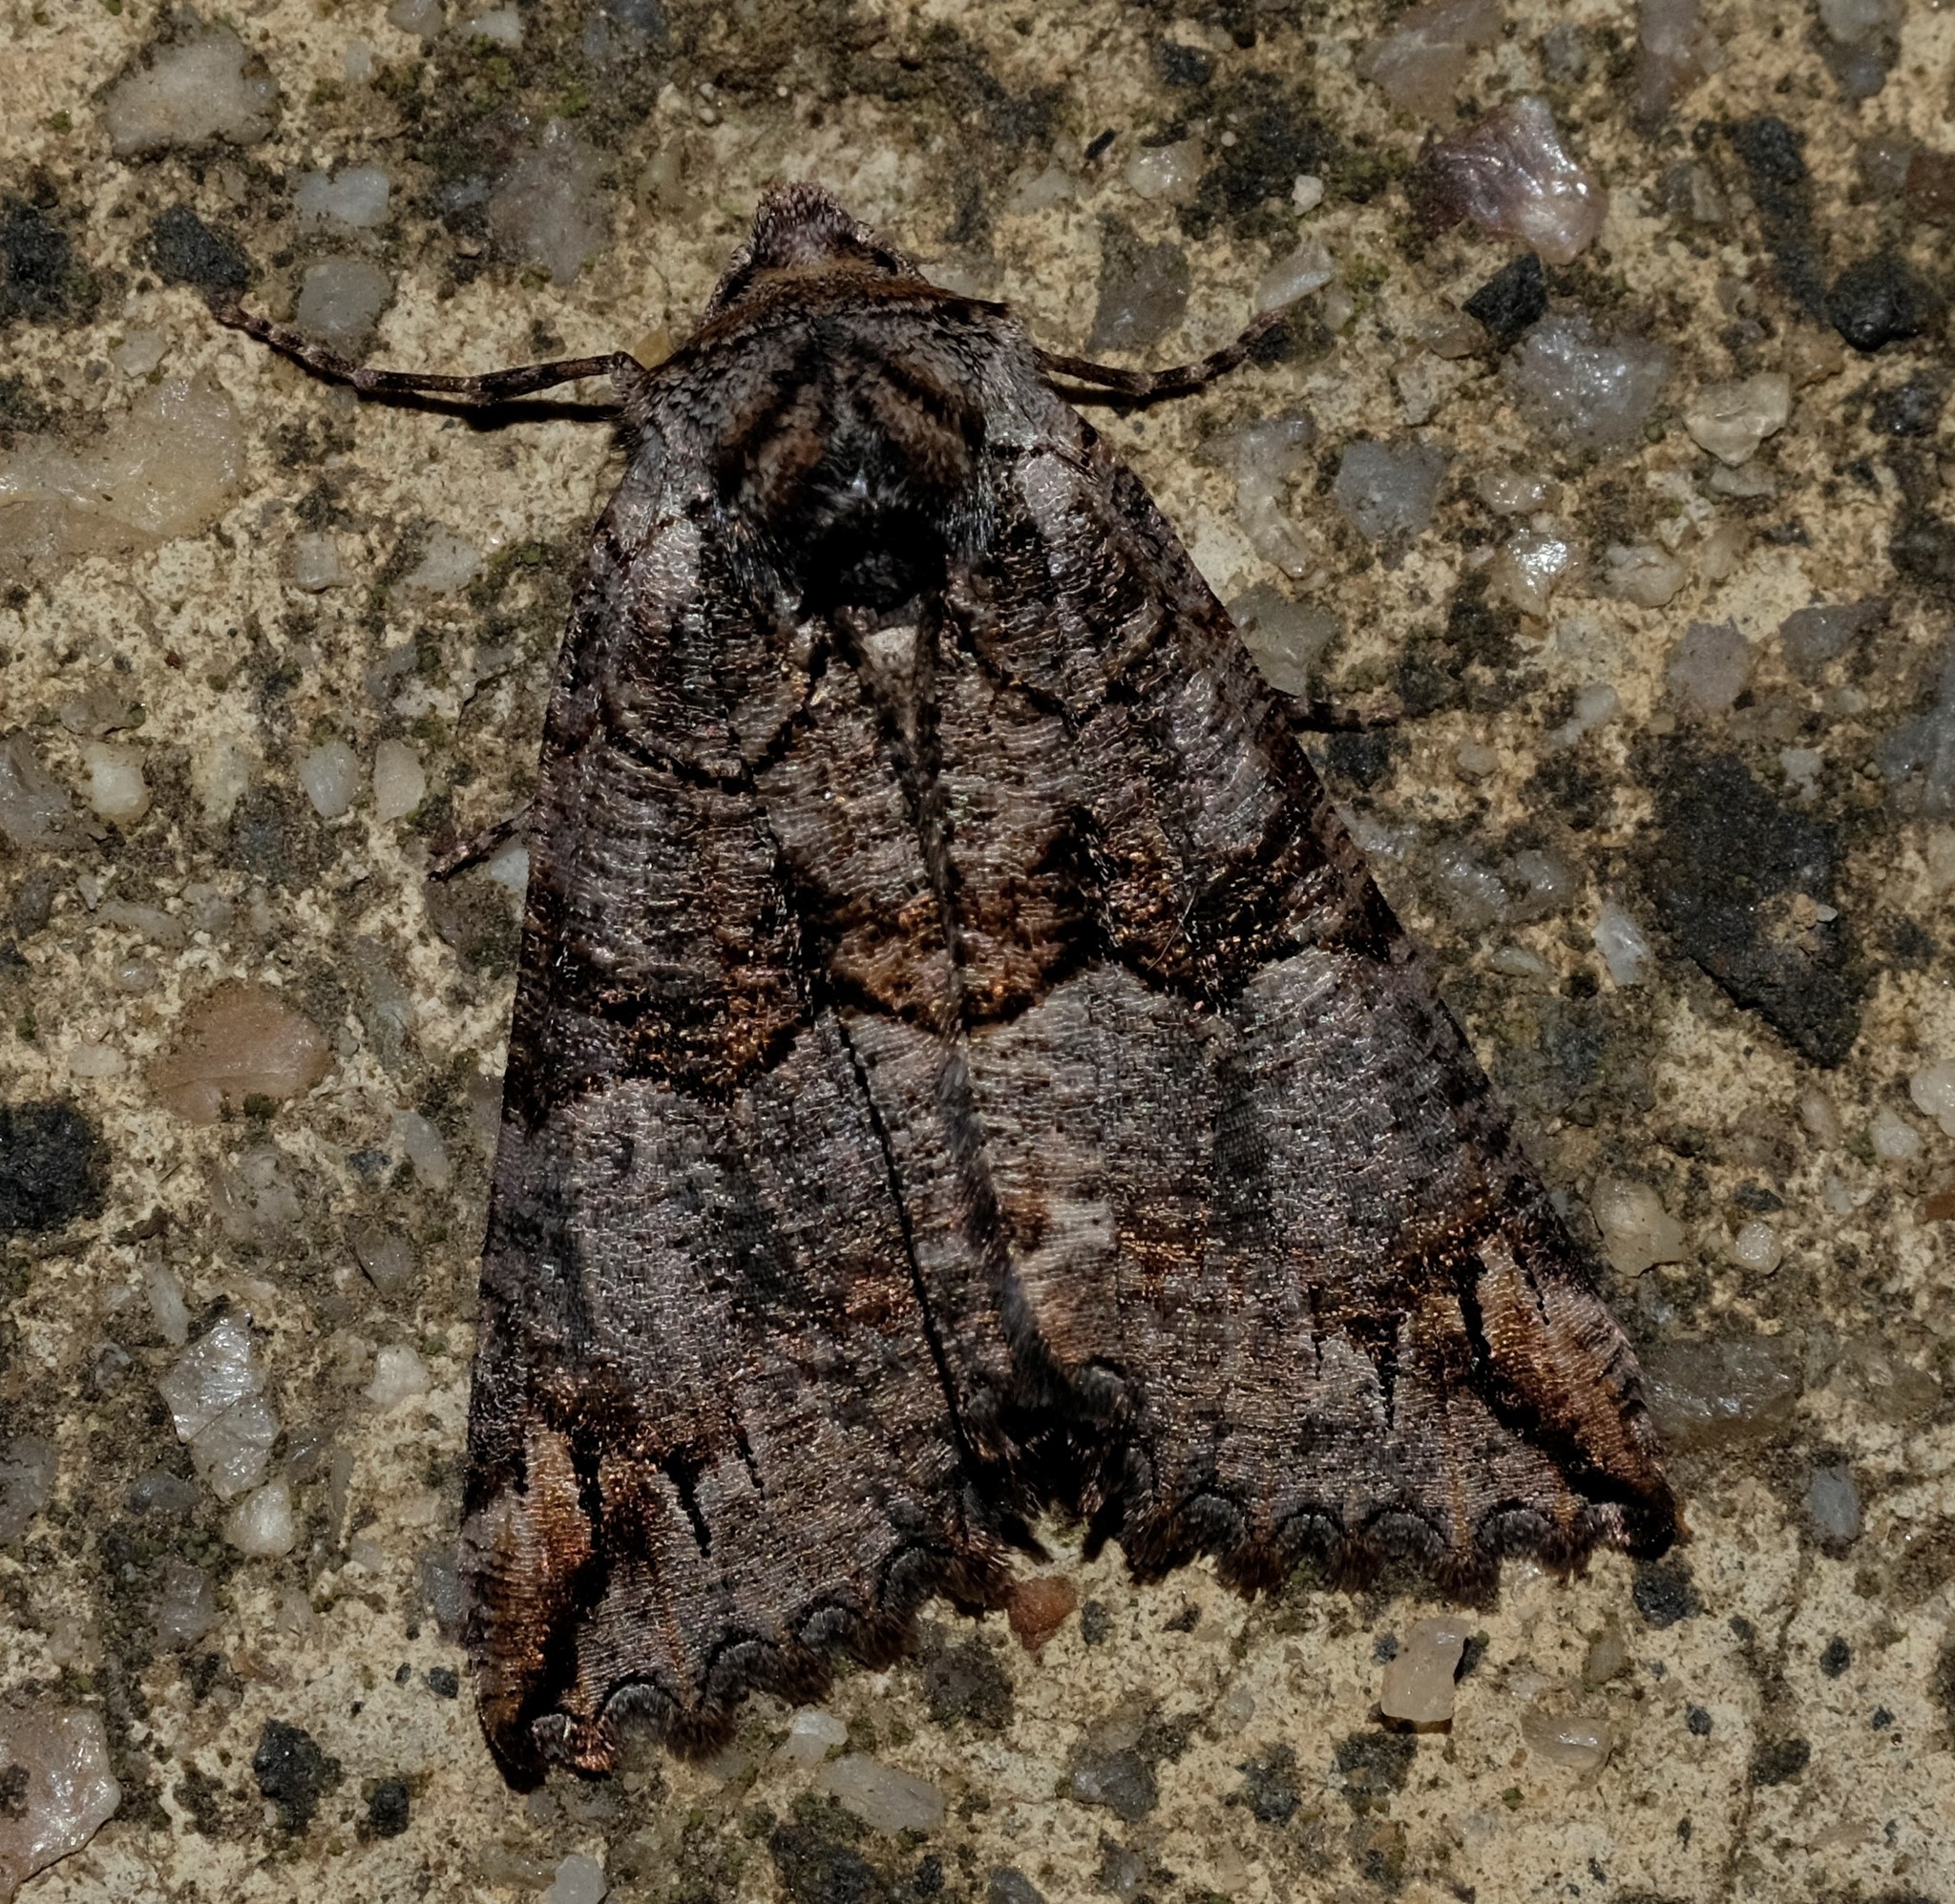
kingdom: Animalia
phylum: Arthropoda
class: Insecta
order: Lepidoptera
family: Geometridae
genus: Nisista
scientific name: Nisista notodontaria
